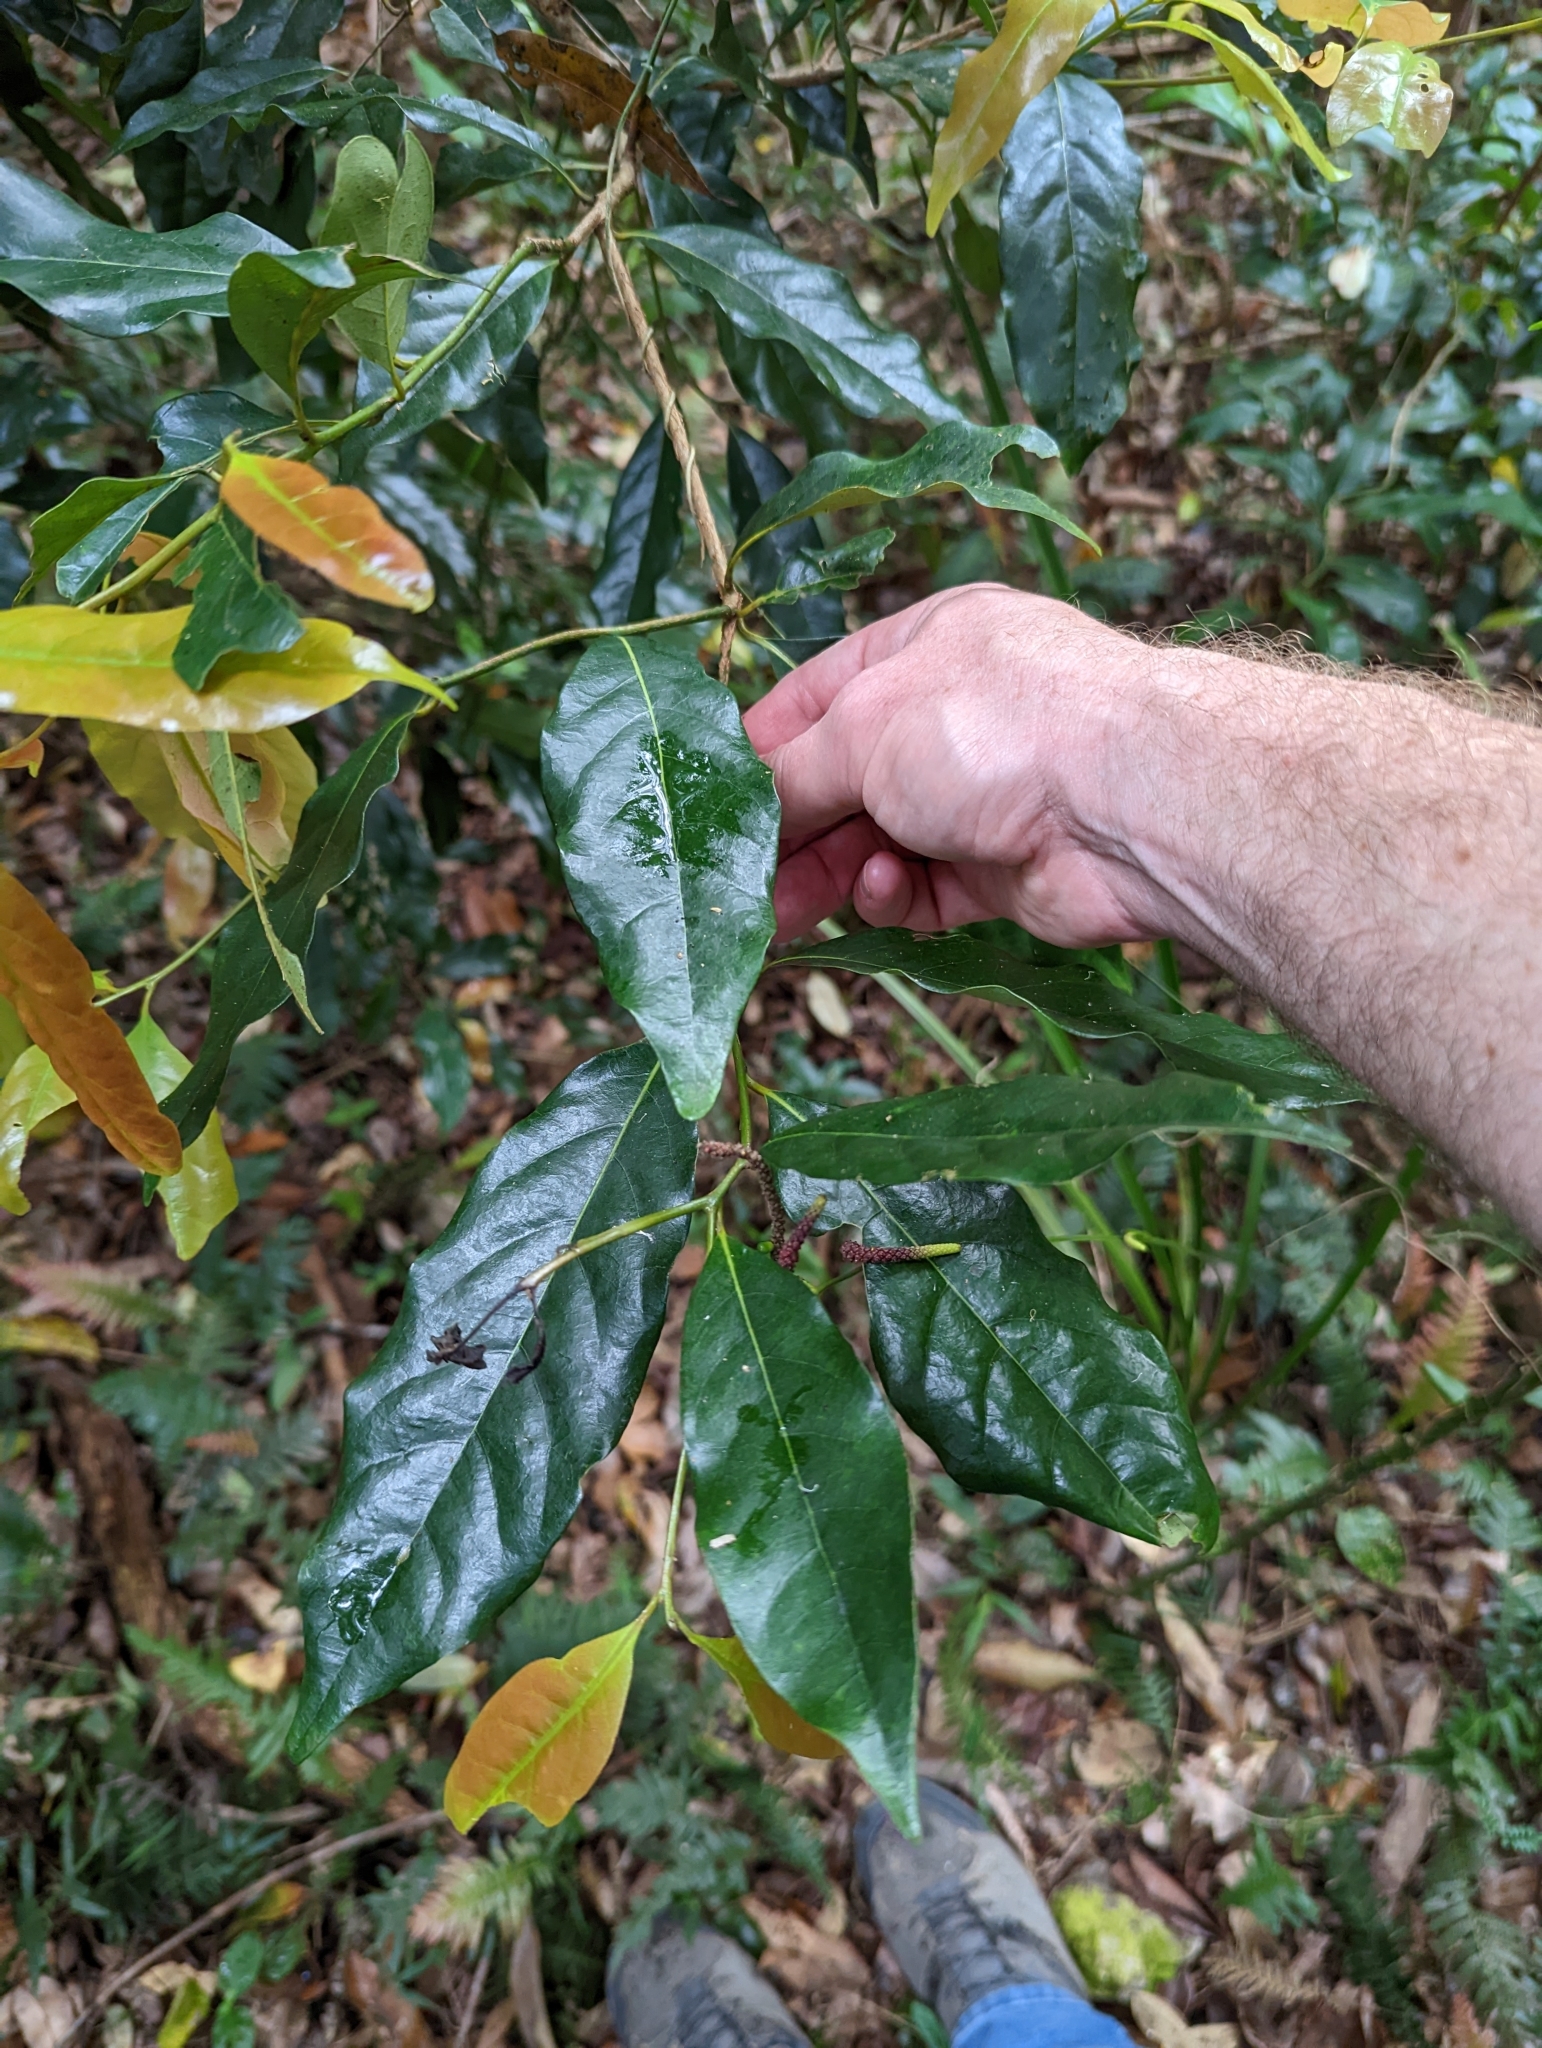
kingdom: Plantae
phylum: Tracheophyta
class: Magnoliopsida
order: Laurales
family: Lauraceae
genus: Cryptocarya
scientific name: Cryptocarya macdonaldii
